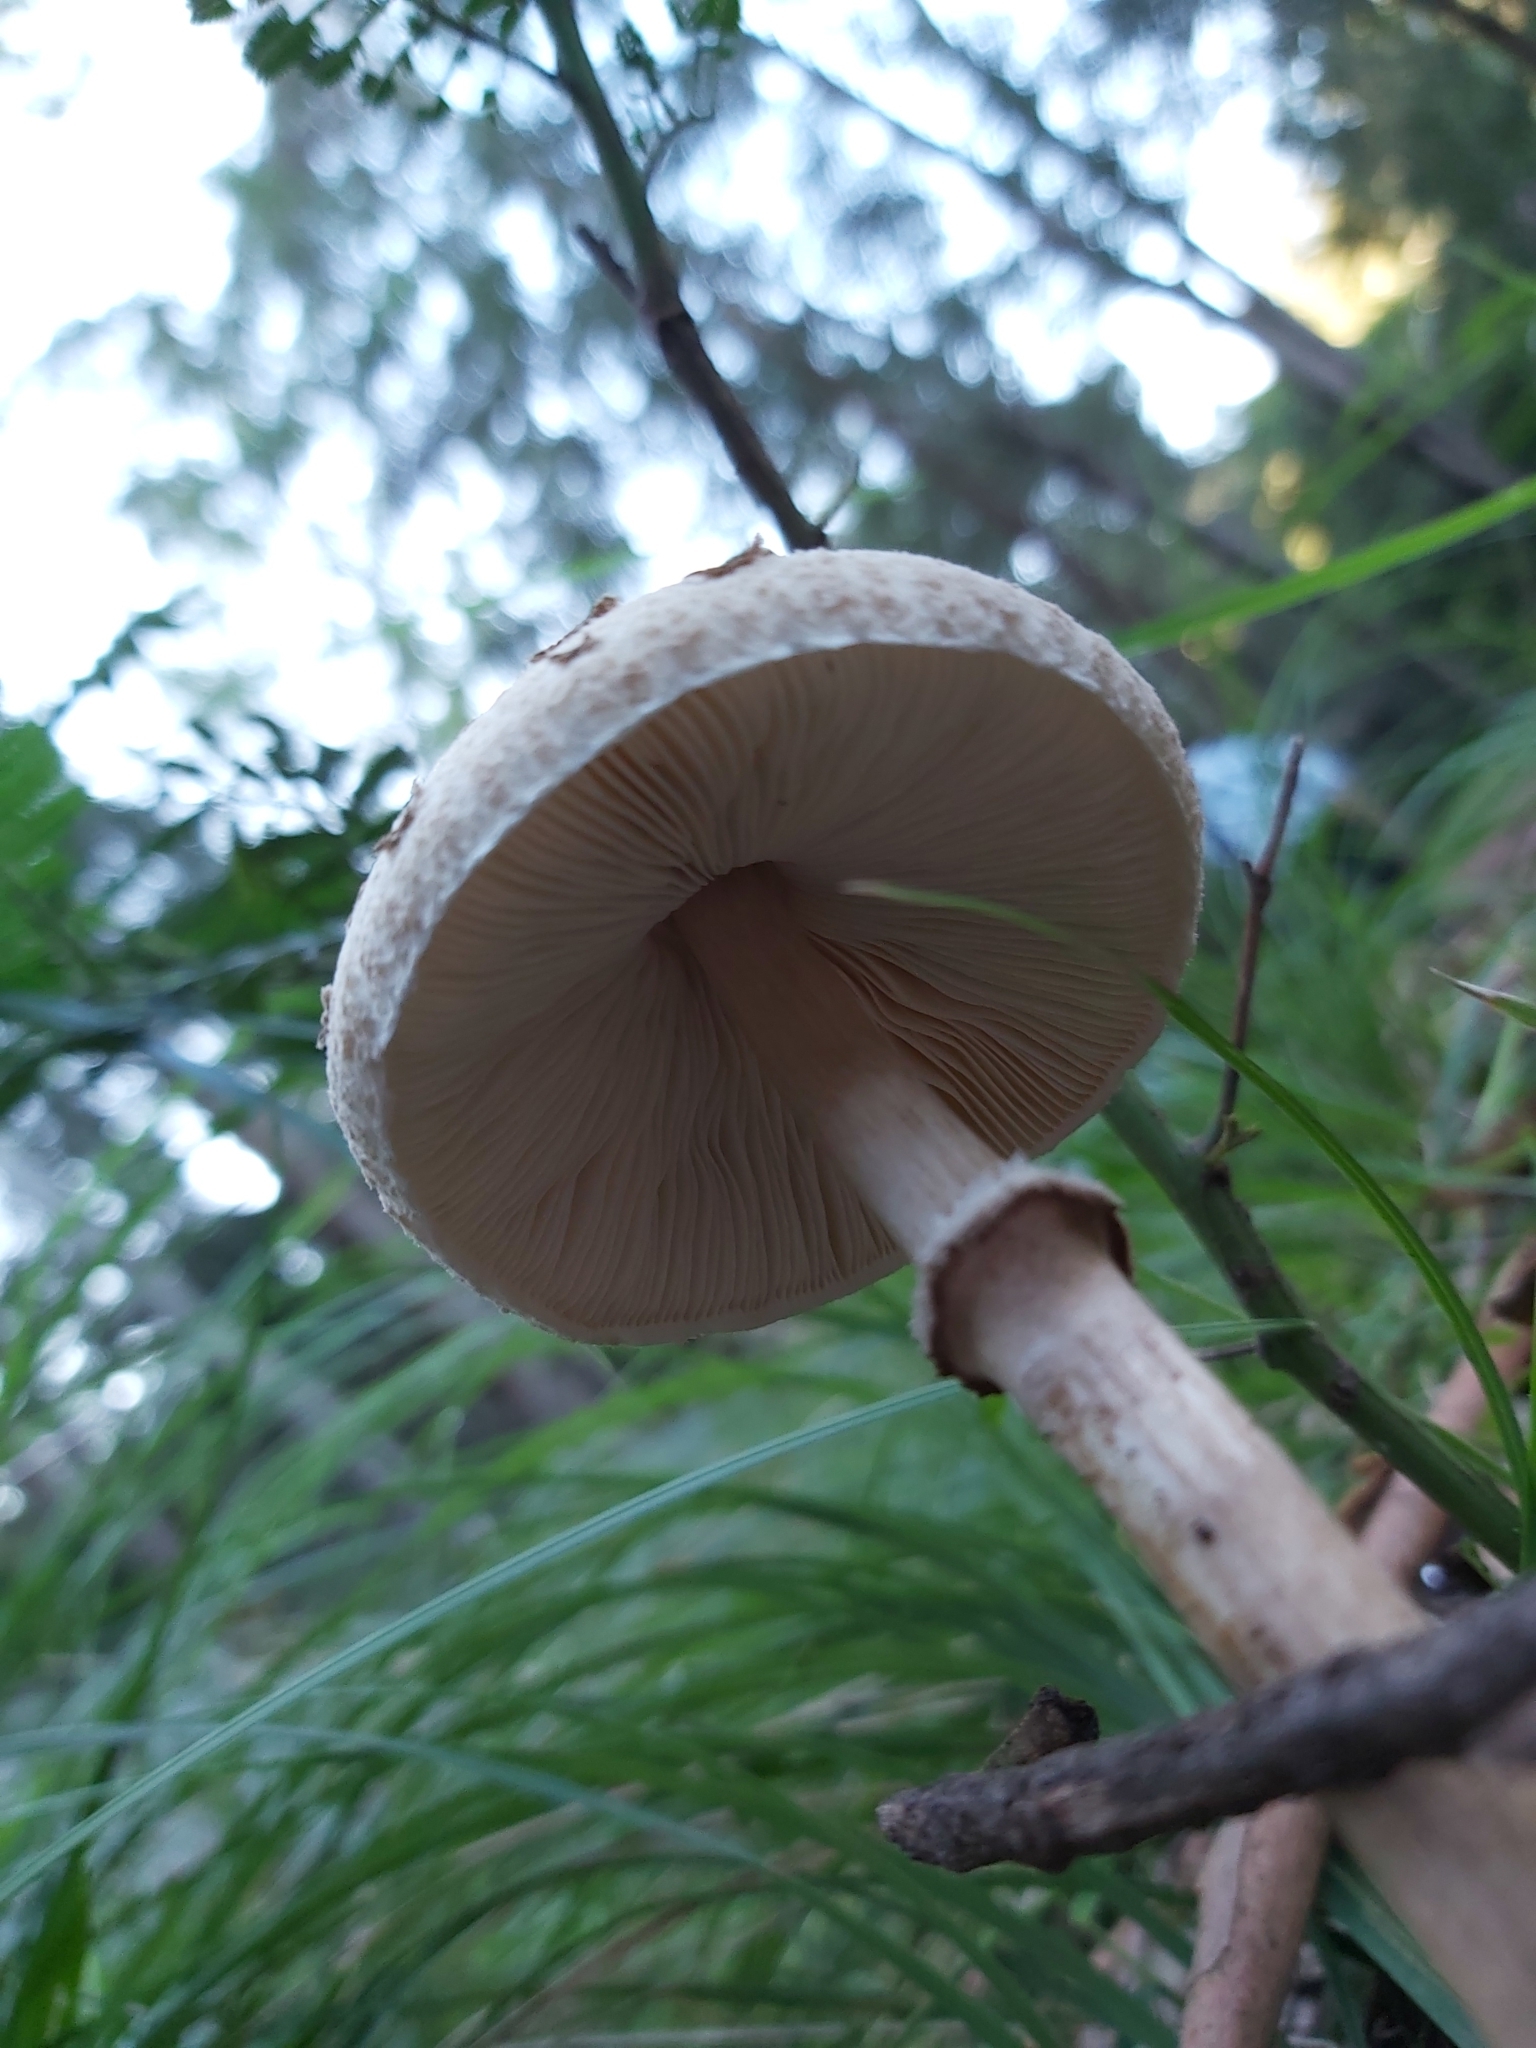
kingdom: Fungi
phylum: Basidiomycota
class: Agaricomycetes
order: Agaricales
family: Agaricaceae
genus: Macrolepiota
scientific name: Macrolepiota clelandii
